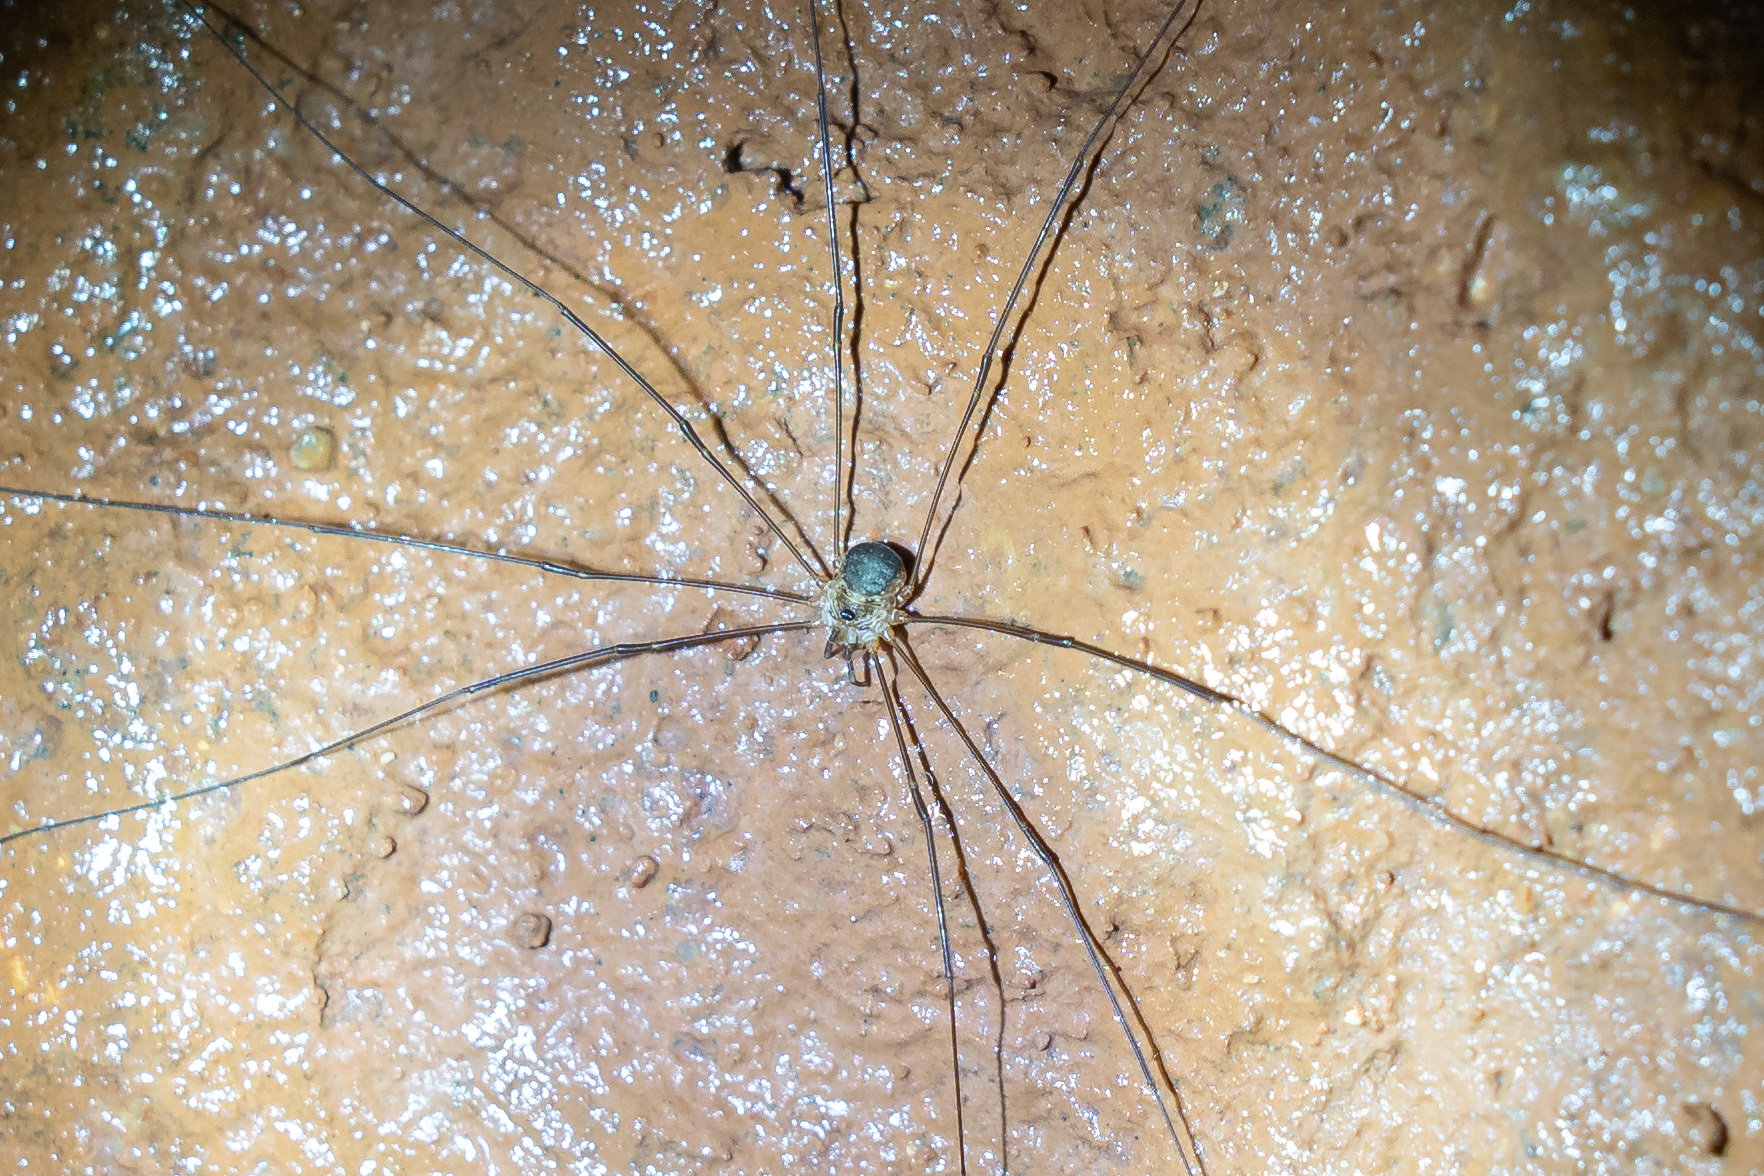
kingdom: Animalia
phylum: Arthropoda
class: Arachnida
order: Opiliones
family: Phalangiidae
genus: Amilenus
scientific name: Amilenus aurantiacus
